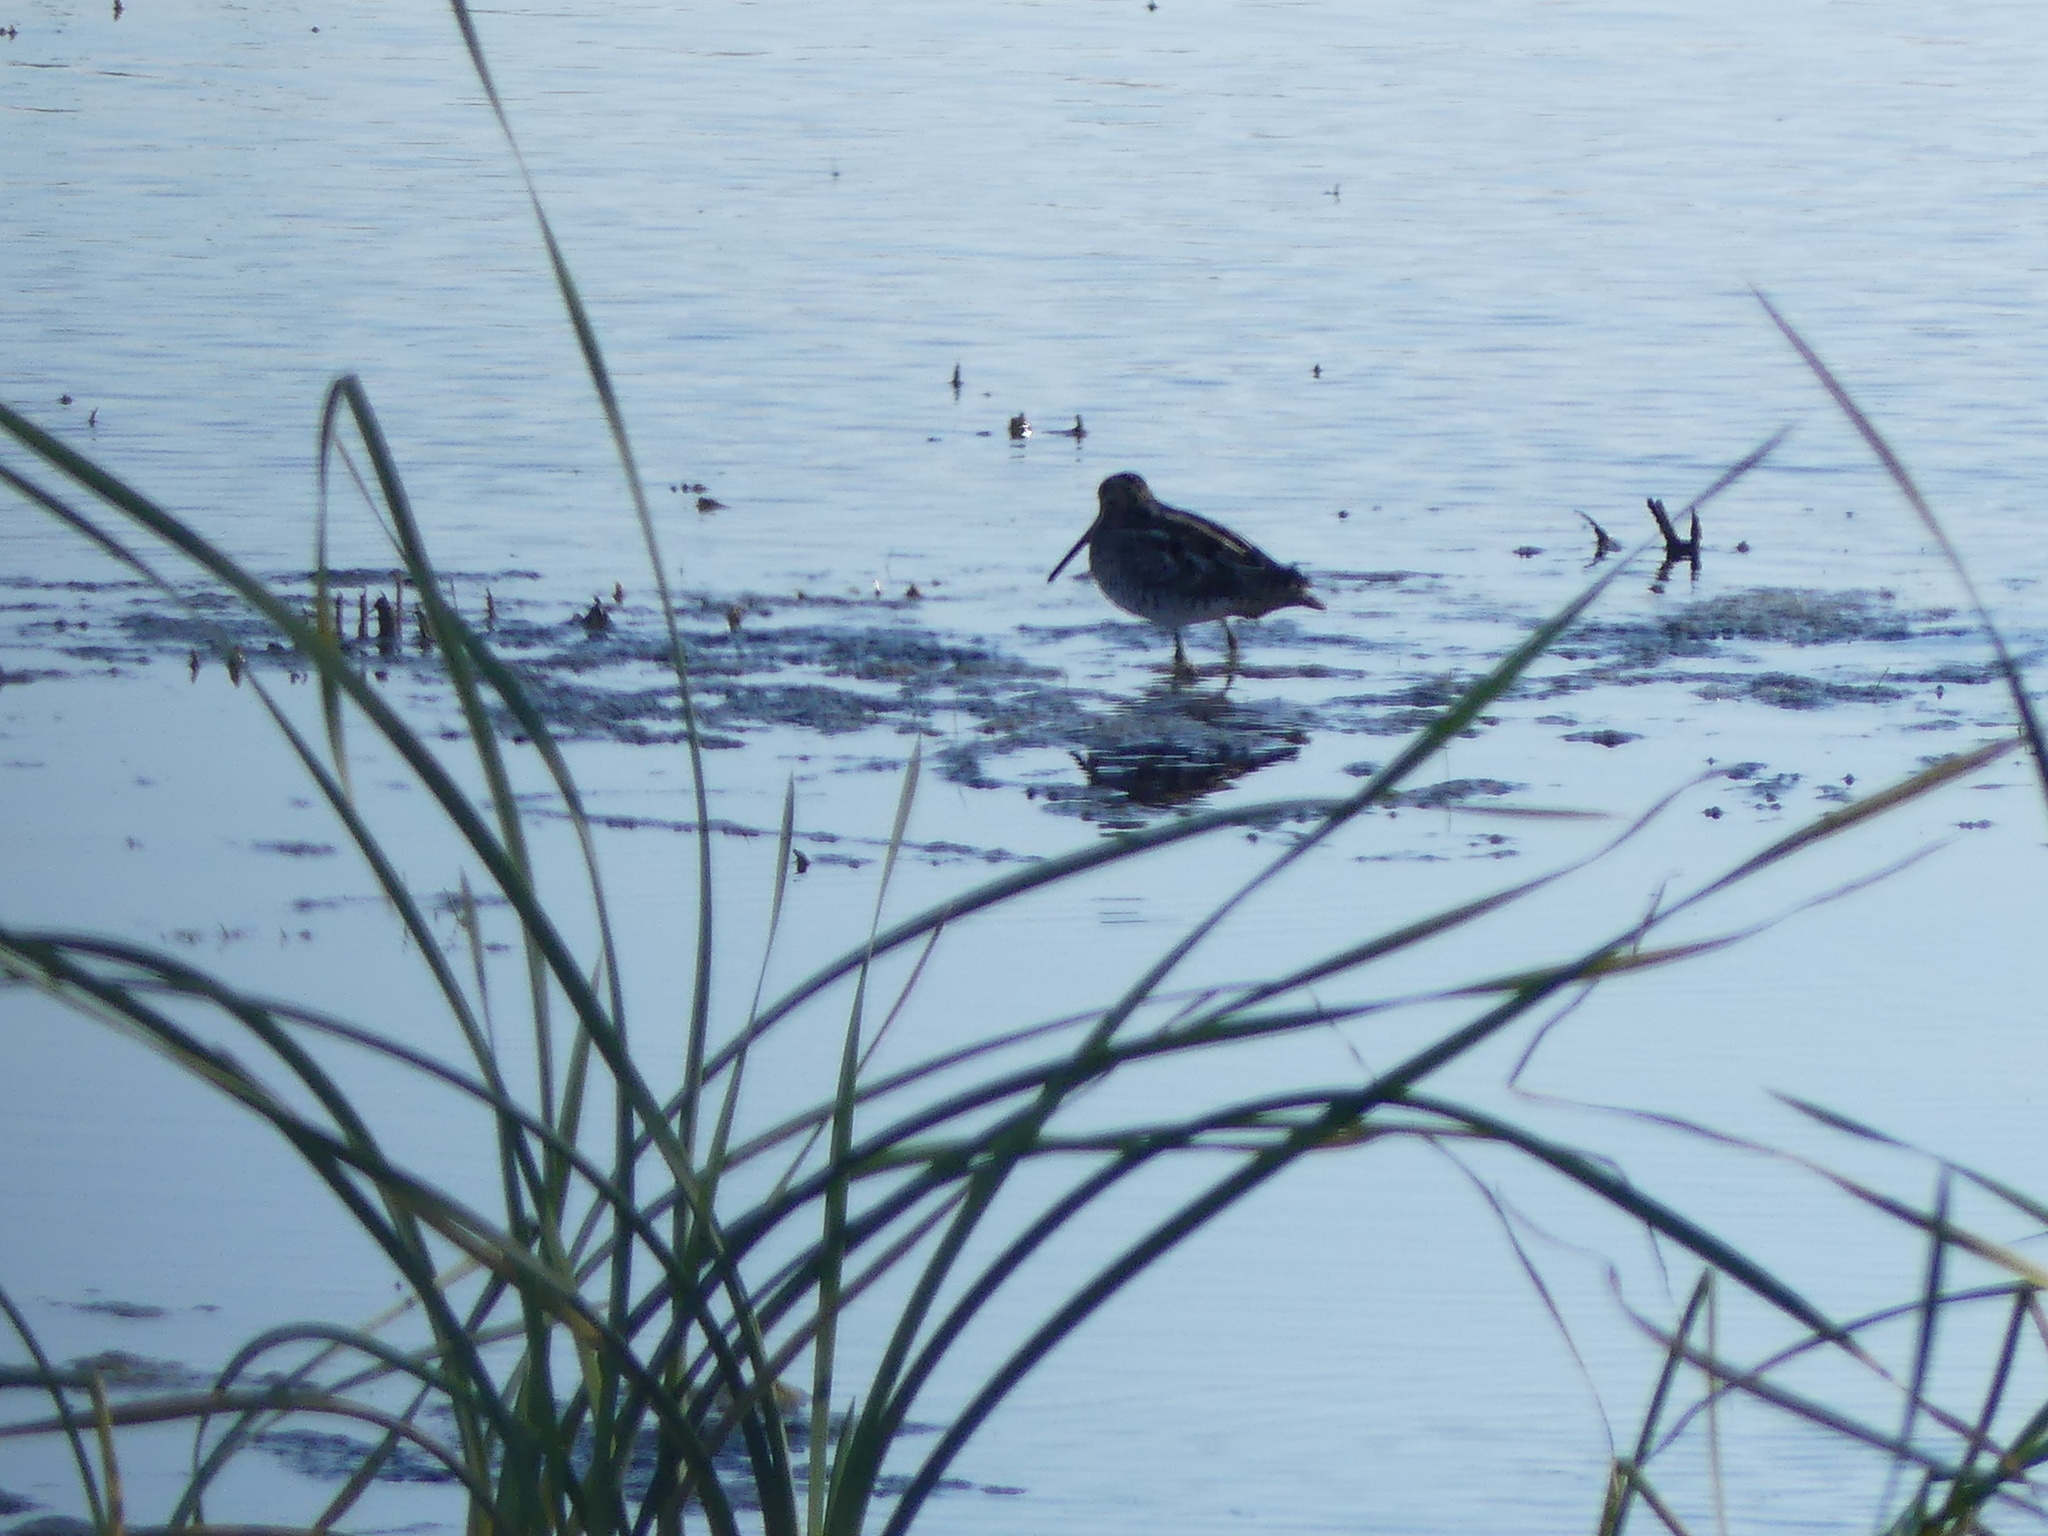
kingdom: Animalia
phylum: Chordata
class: Aves
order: Charadriiformes
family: Scolopacidae
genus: Gallinago
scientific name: Gallinago delicata
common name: Wilson's snipe
